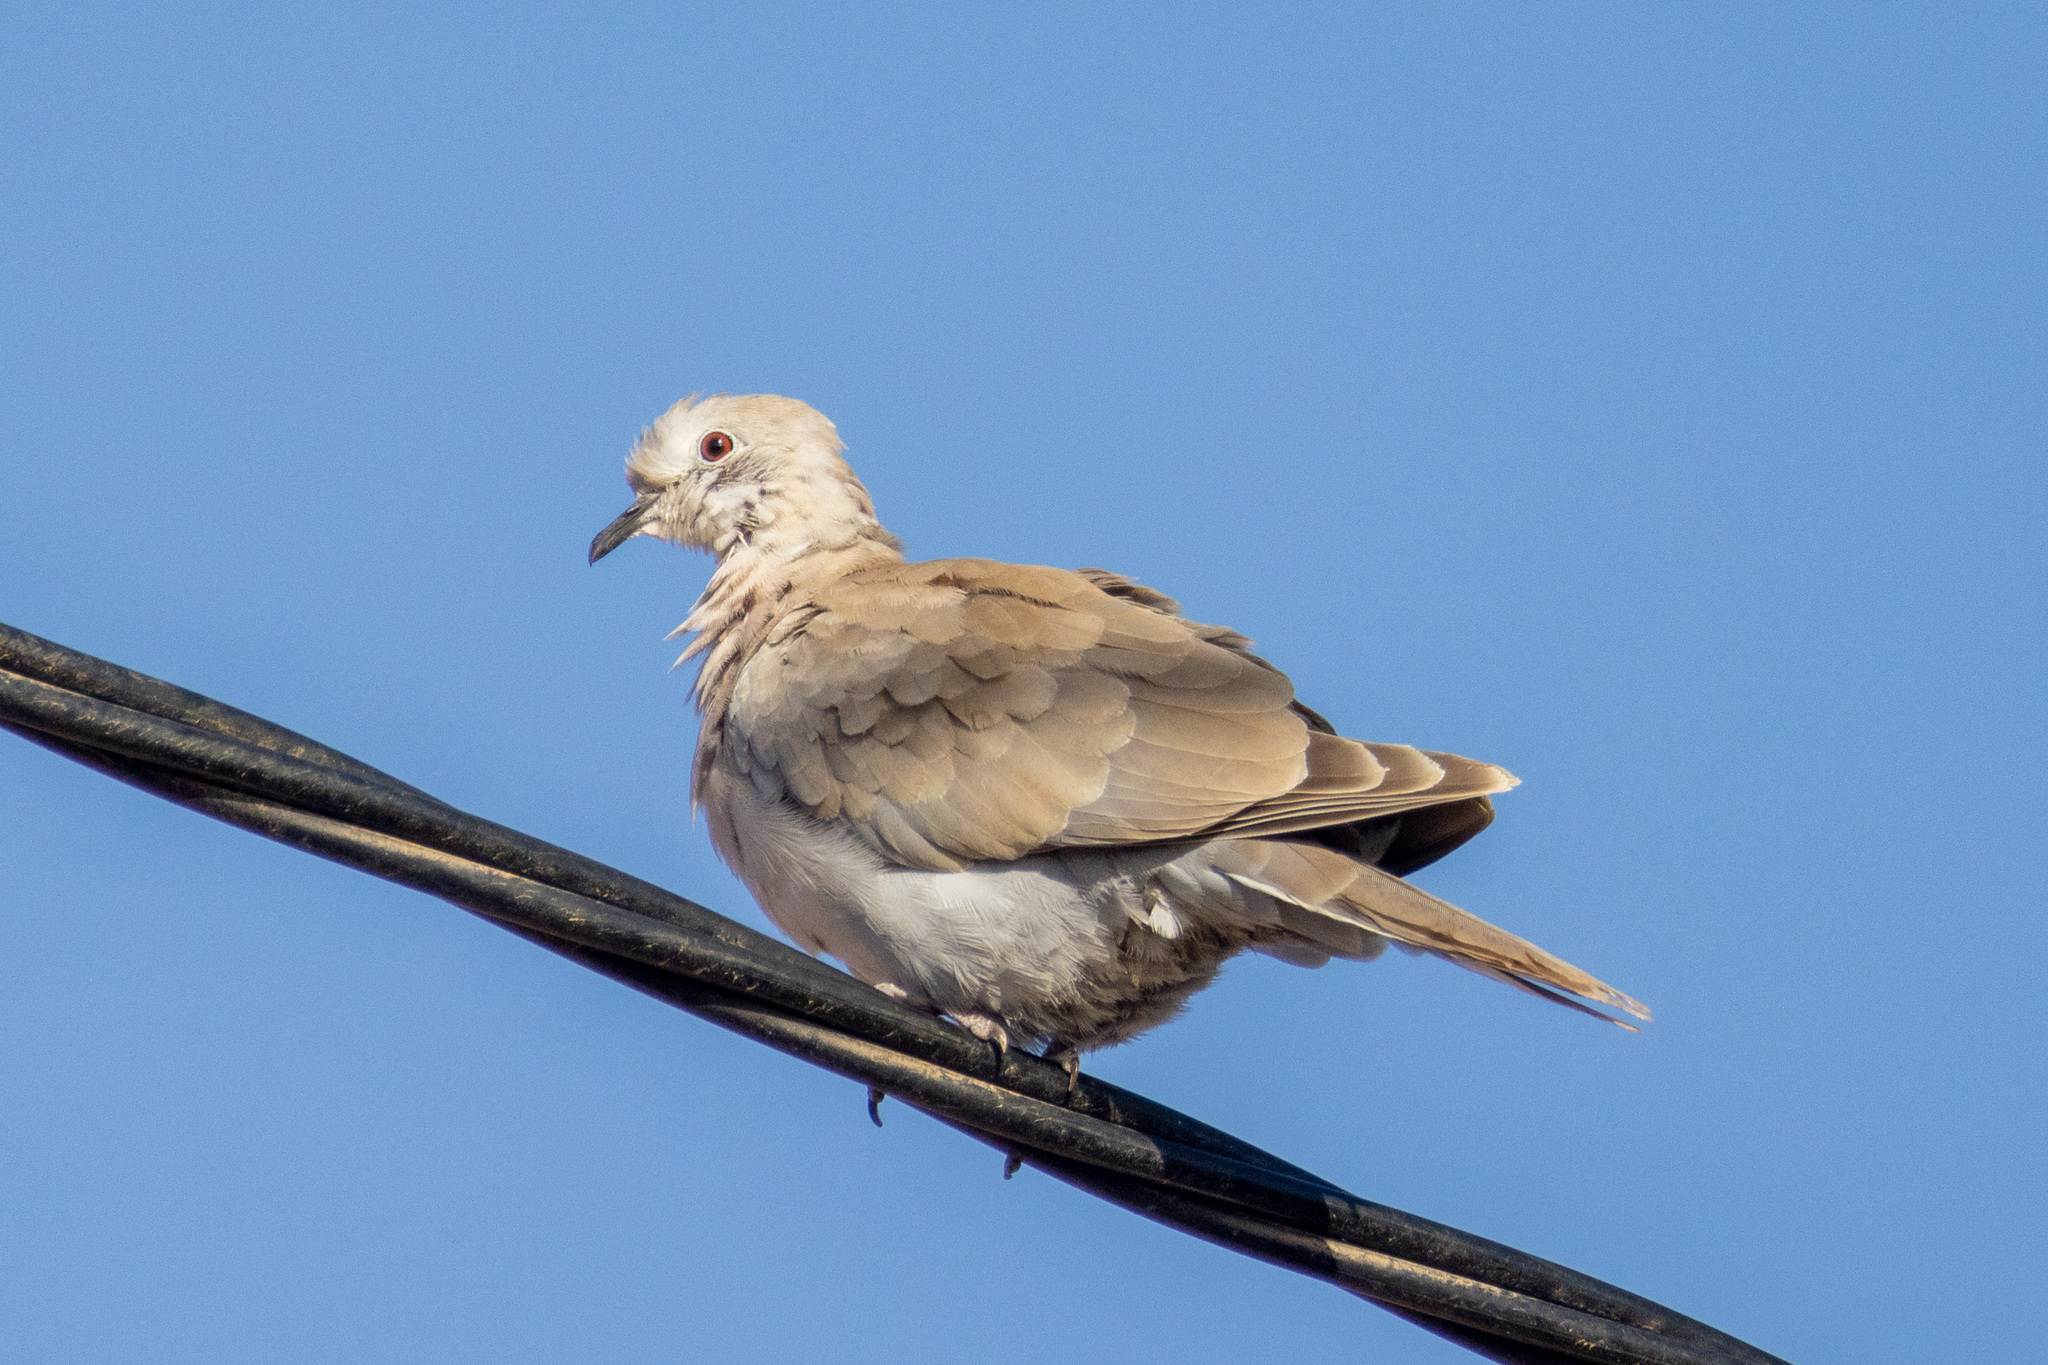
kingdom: Animalia
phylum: Chordata
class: Aves
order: Columbiformes
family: Columbidae
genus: Streptopelia
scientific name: Streptopelia decaocto
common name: Eurasian collared dove
